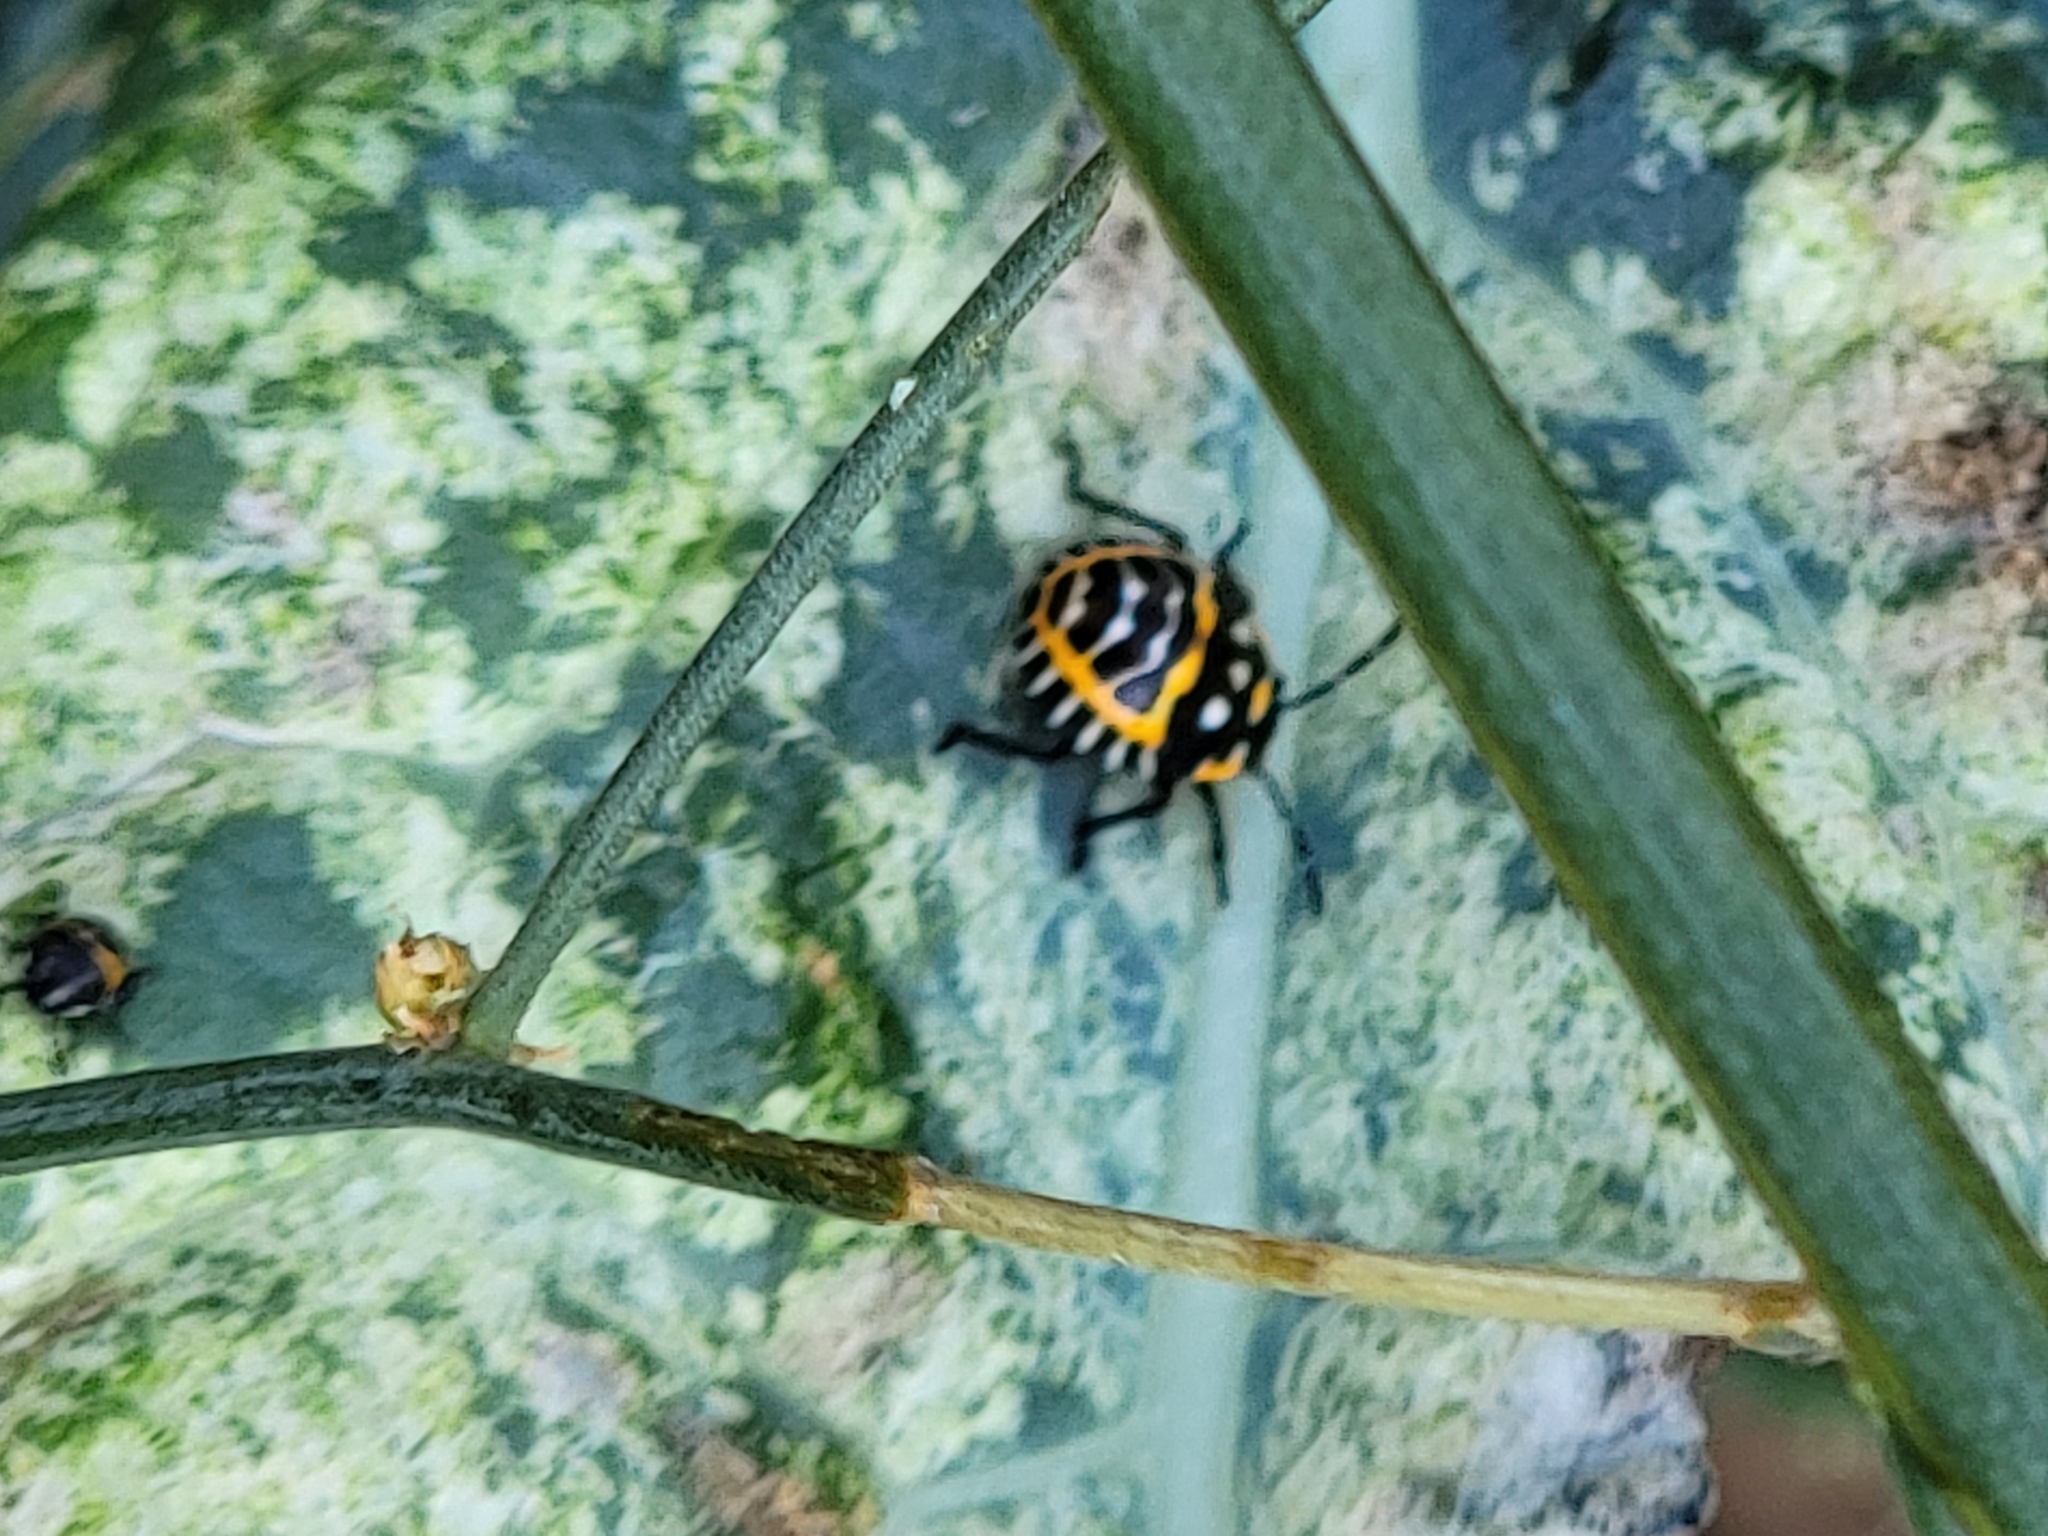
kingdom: Animalia
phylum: Arthropoda
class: Insecta
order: Hemiptera
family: Pentatomidae
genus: Murgantia
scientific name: Murgantia histrionica
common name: Harlequin bug
